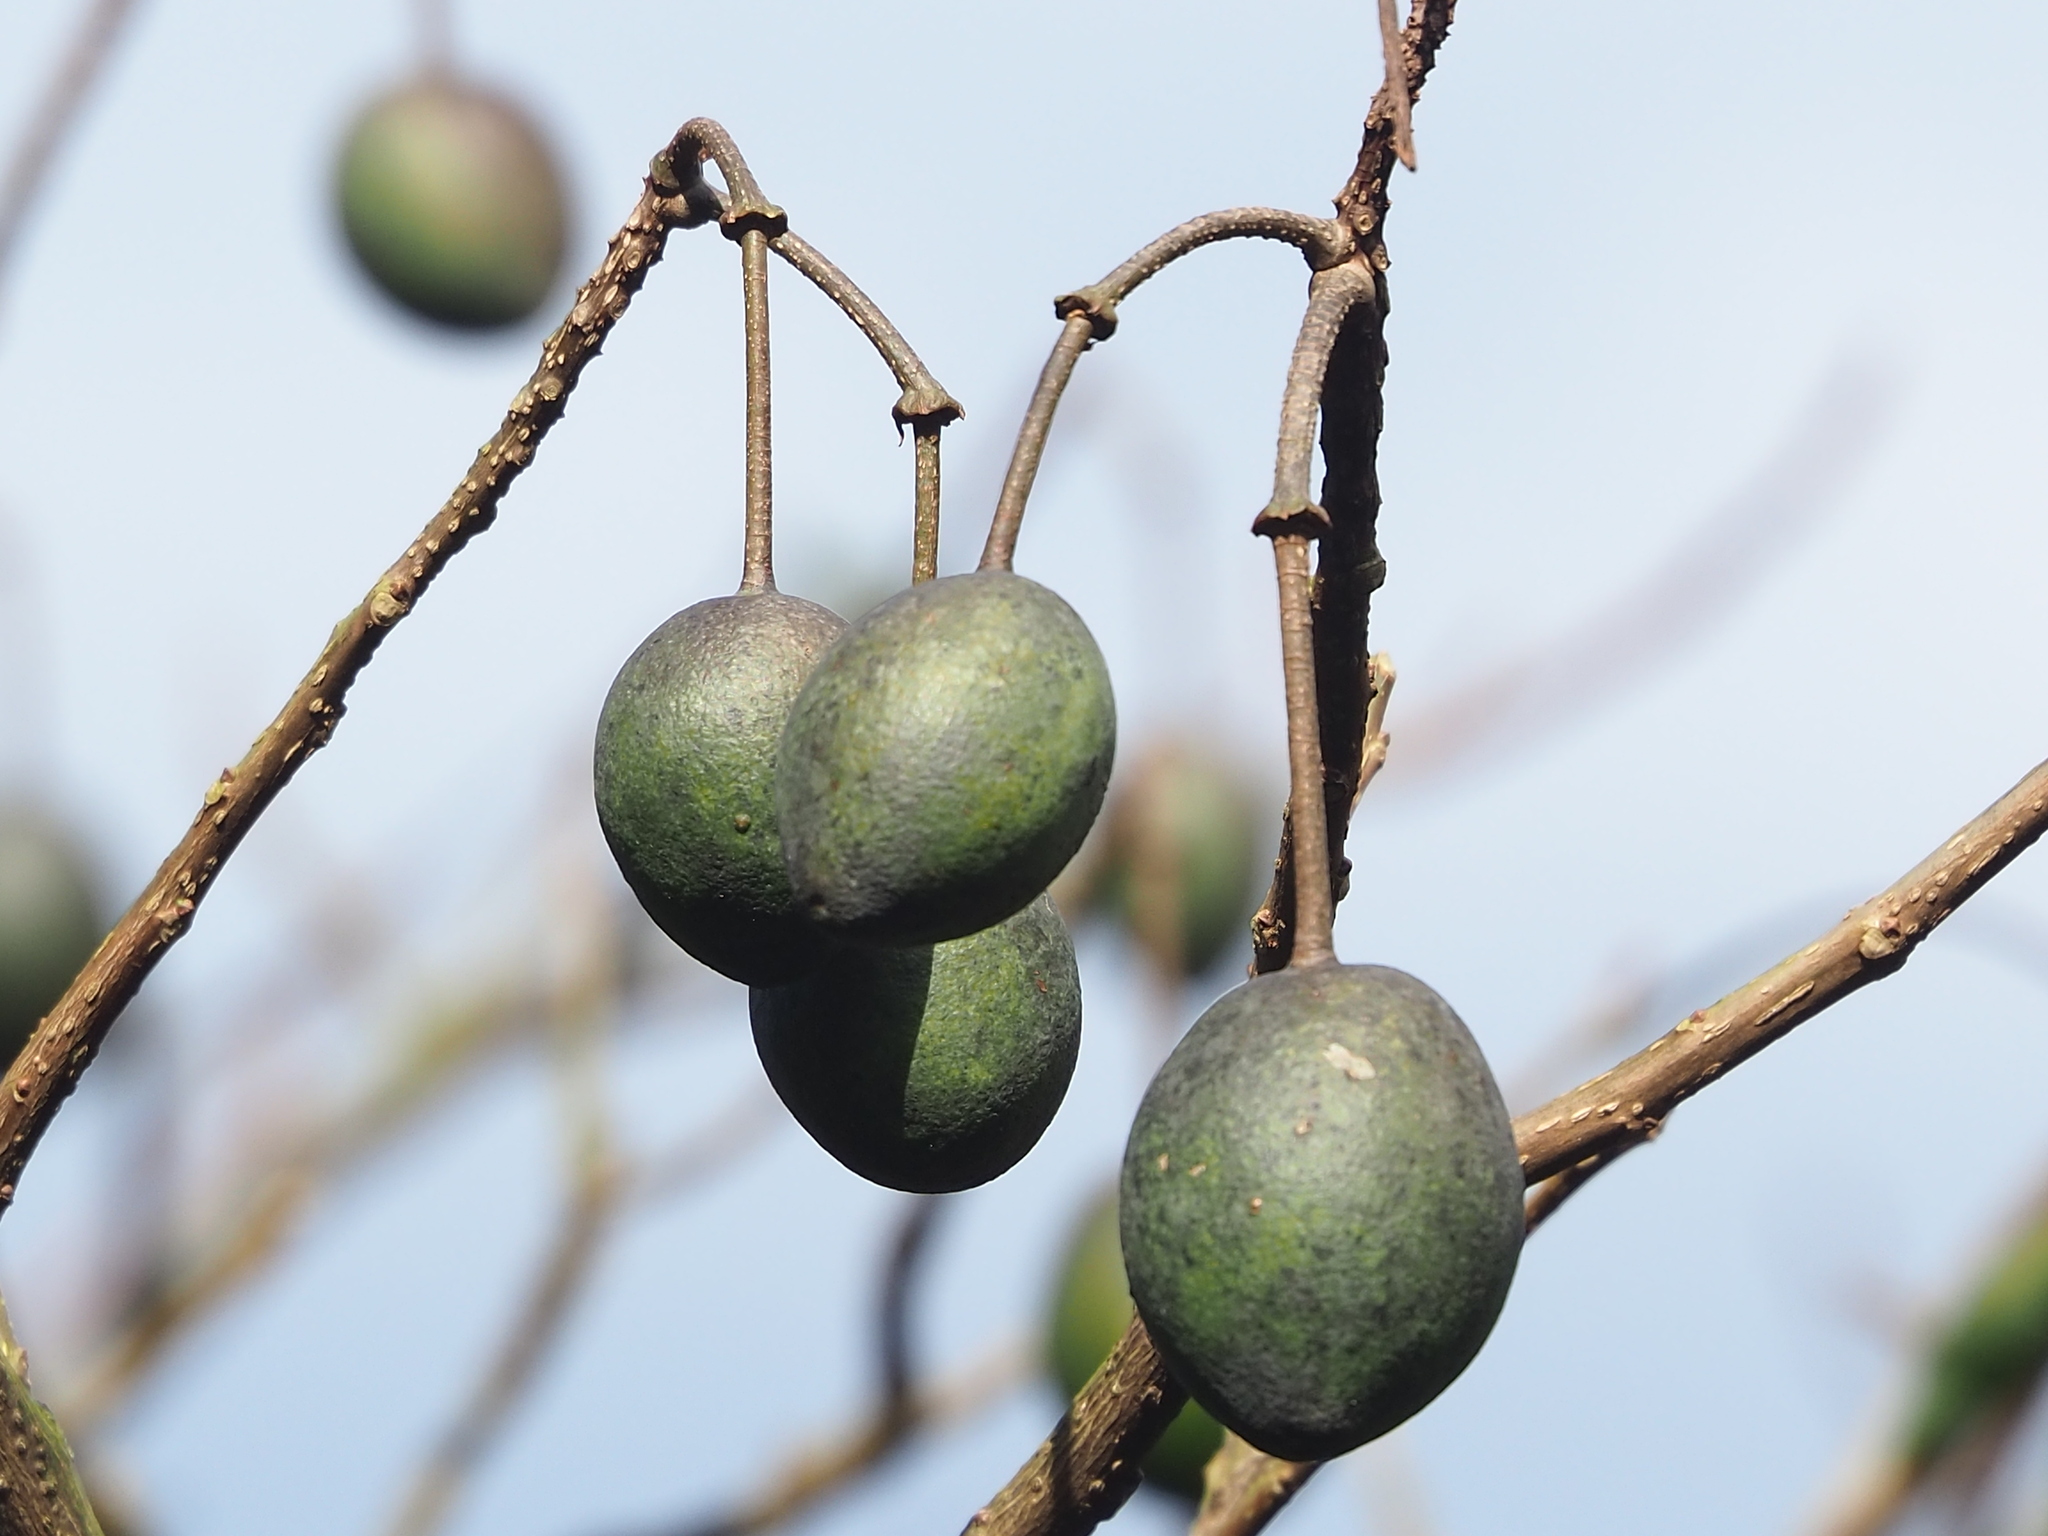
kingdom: Plantae
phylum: Tracheophyta
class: Magnoliopsida
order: Brassicales
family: Capparaceae
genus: Crateva
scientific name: Crateva formosensis
